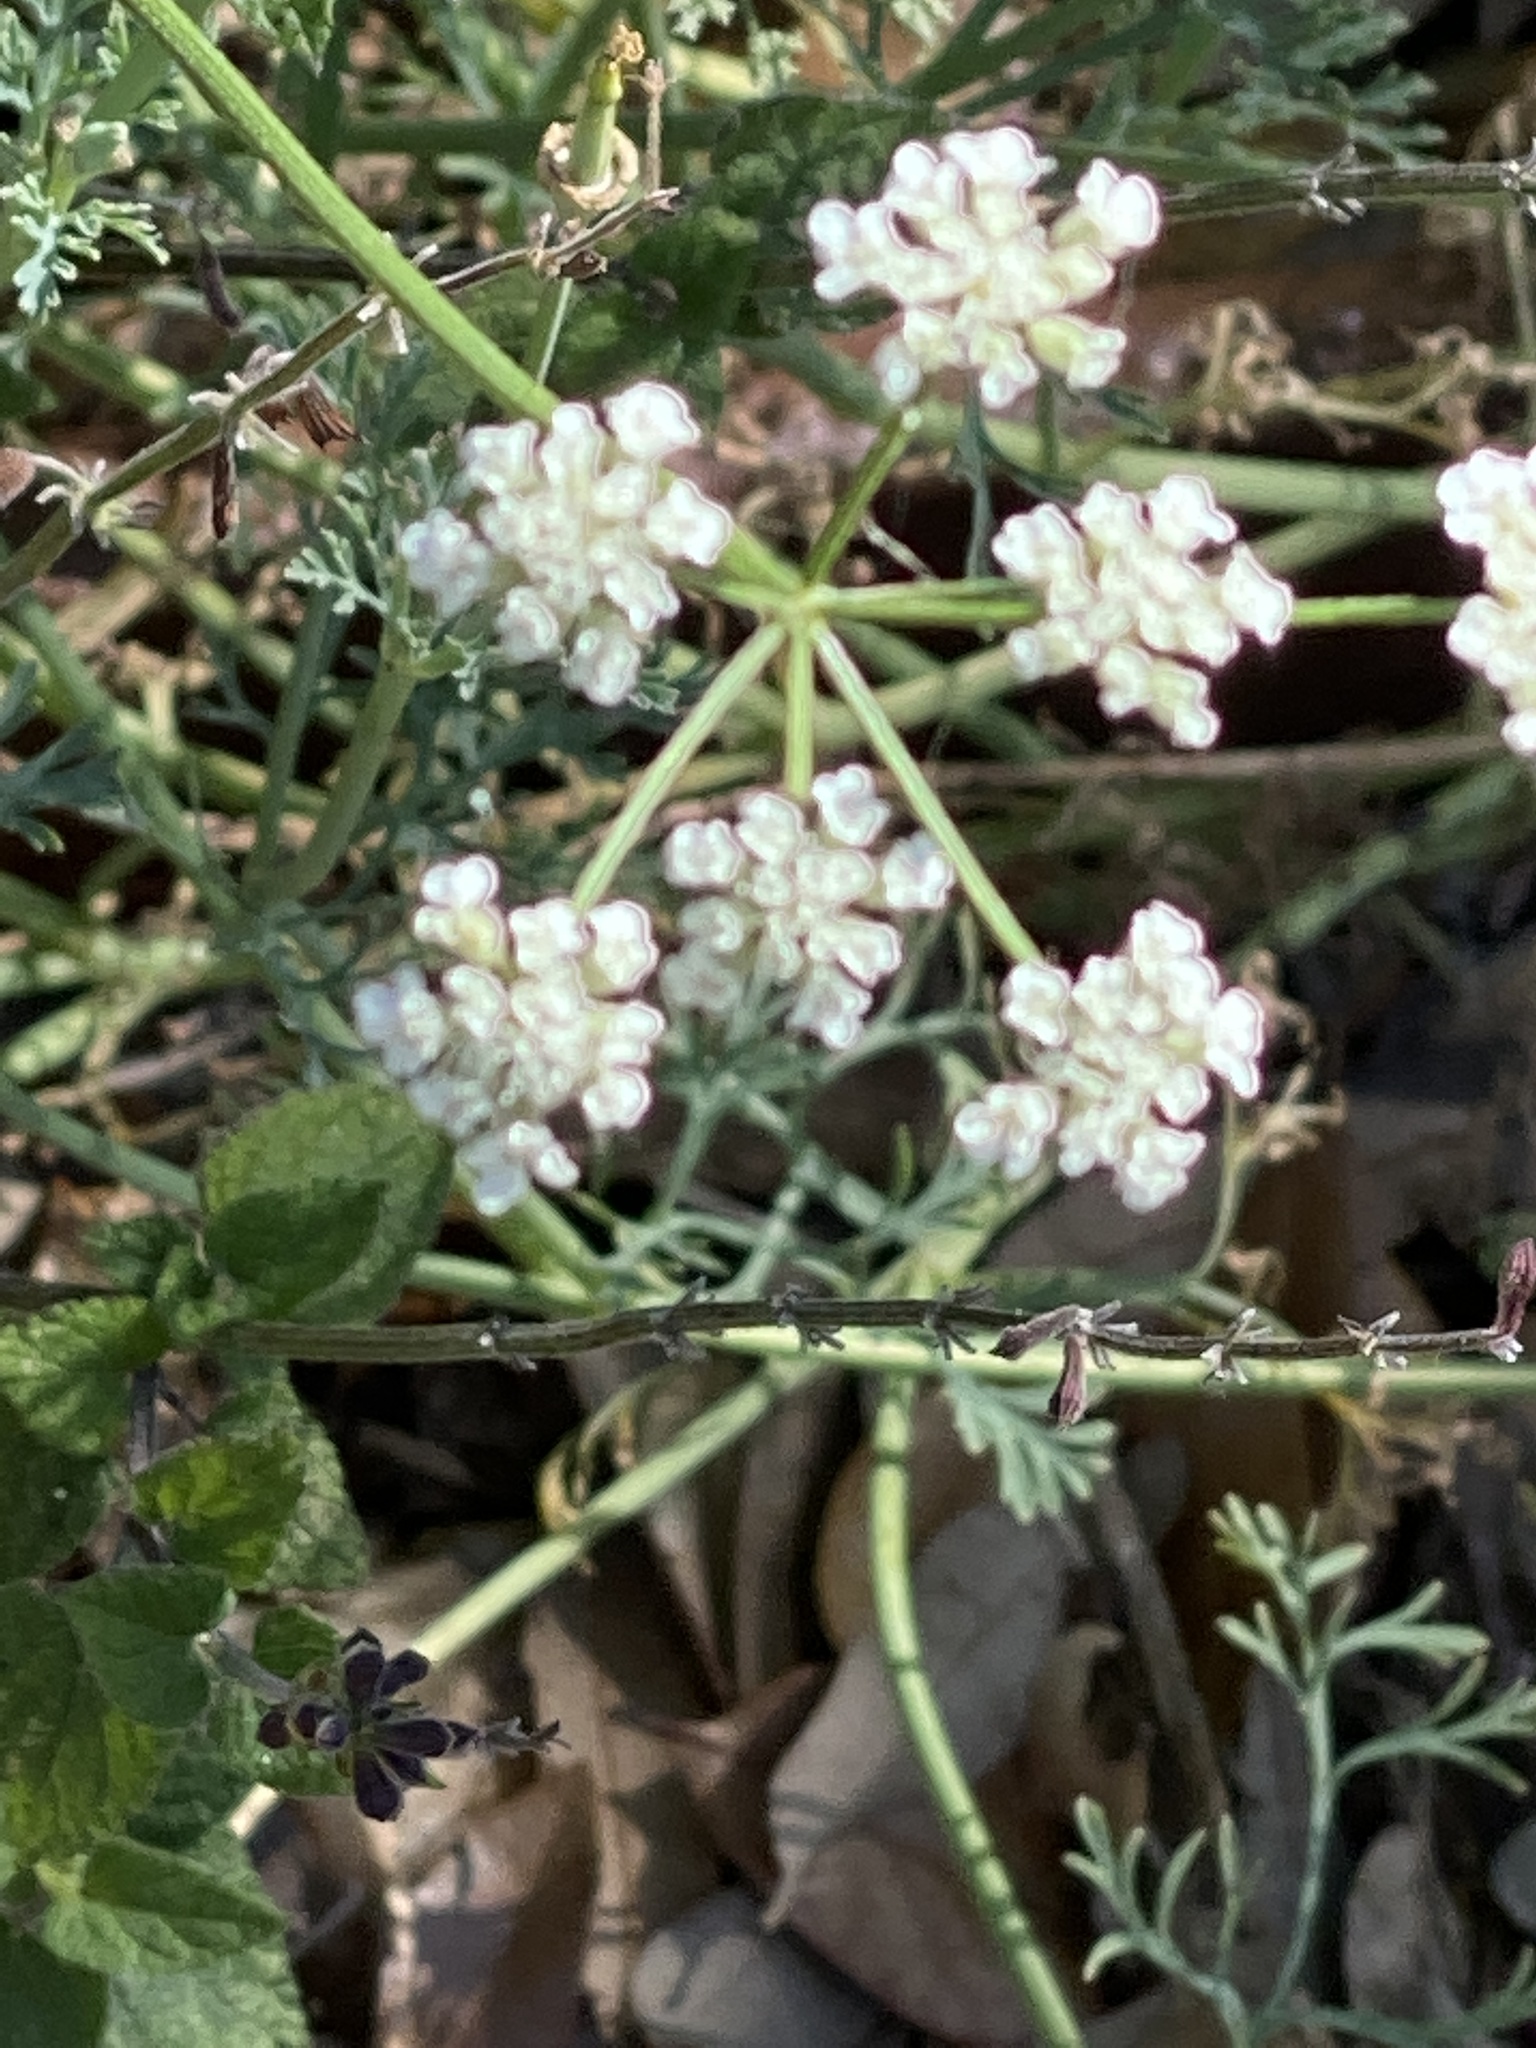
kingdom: Plantae
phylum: Tracheophyta
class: Magnoliopsida
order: Apiales
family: Apiaceae
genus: Torilis
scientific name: Torilis arvensis
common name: Spreading hedge-parsley
